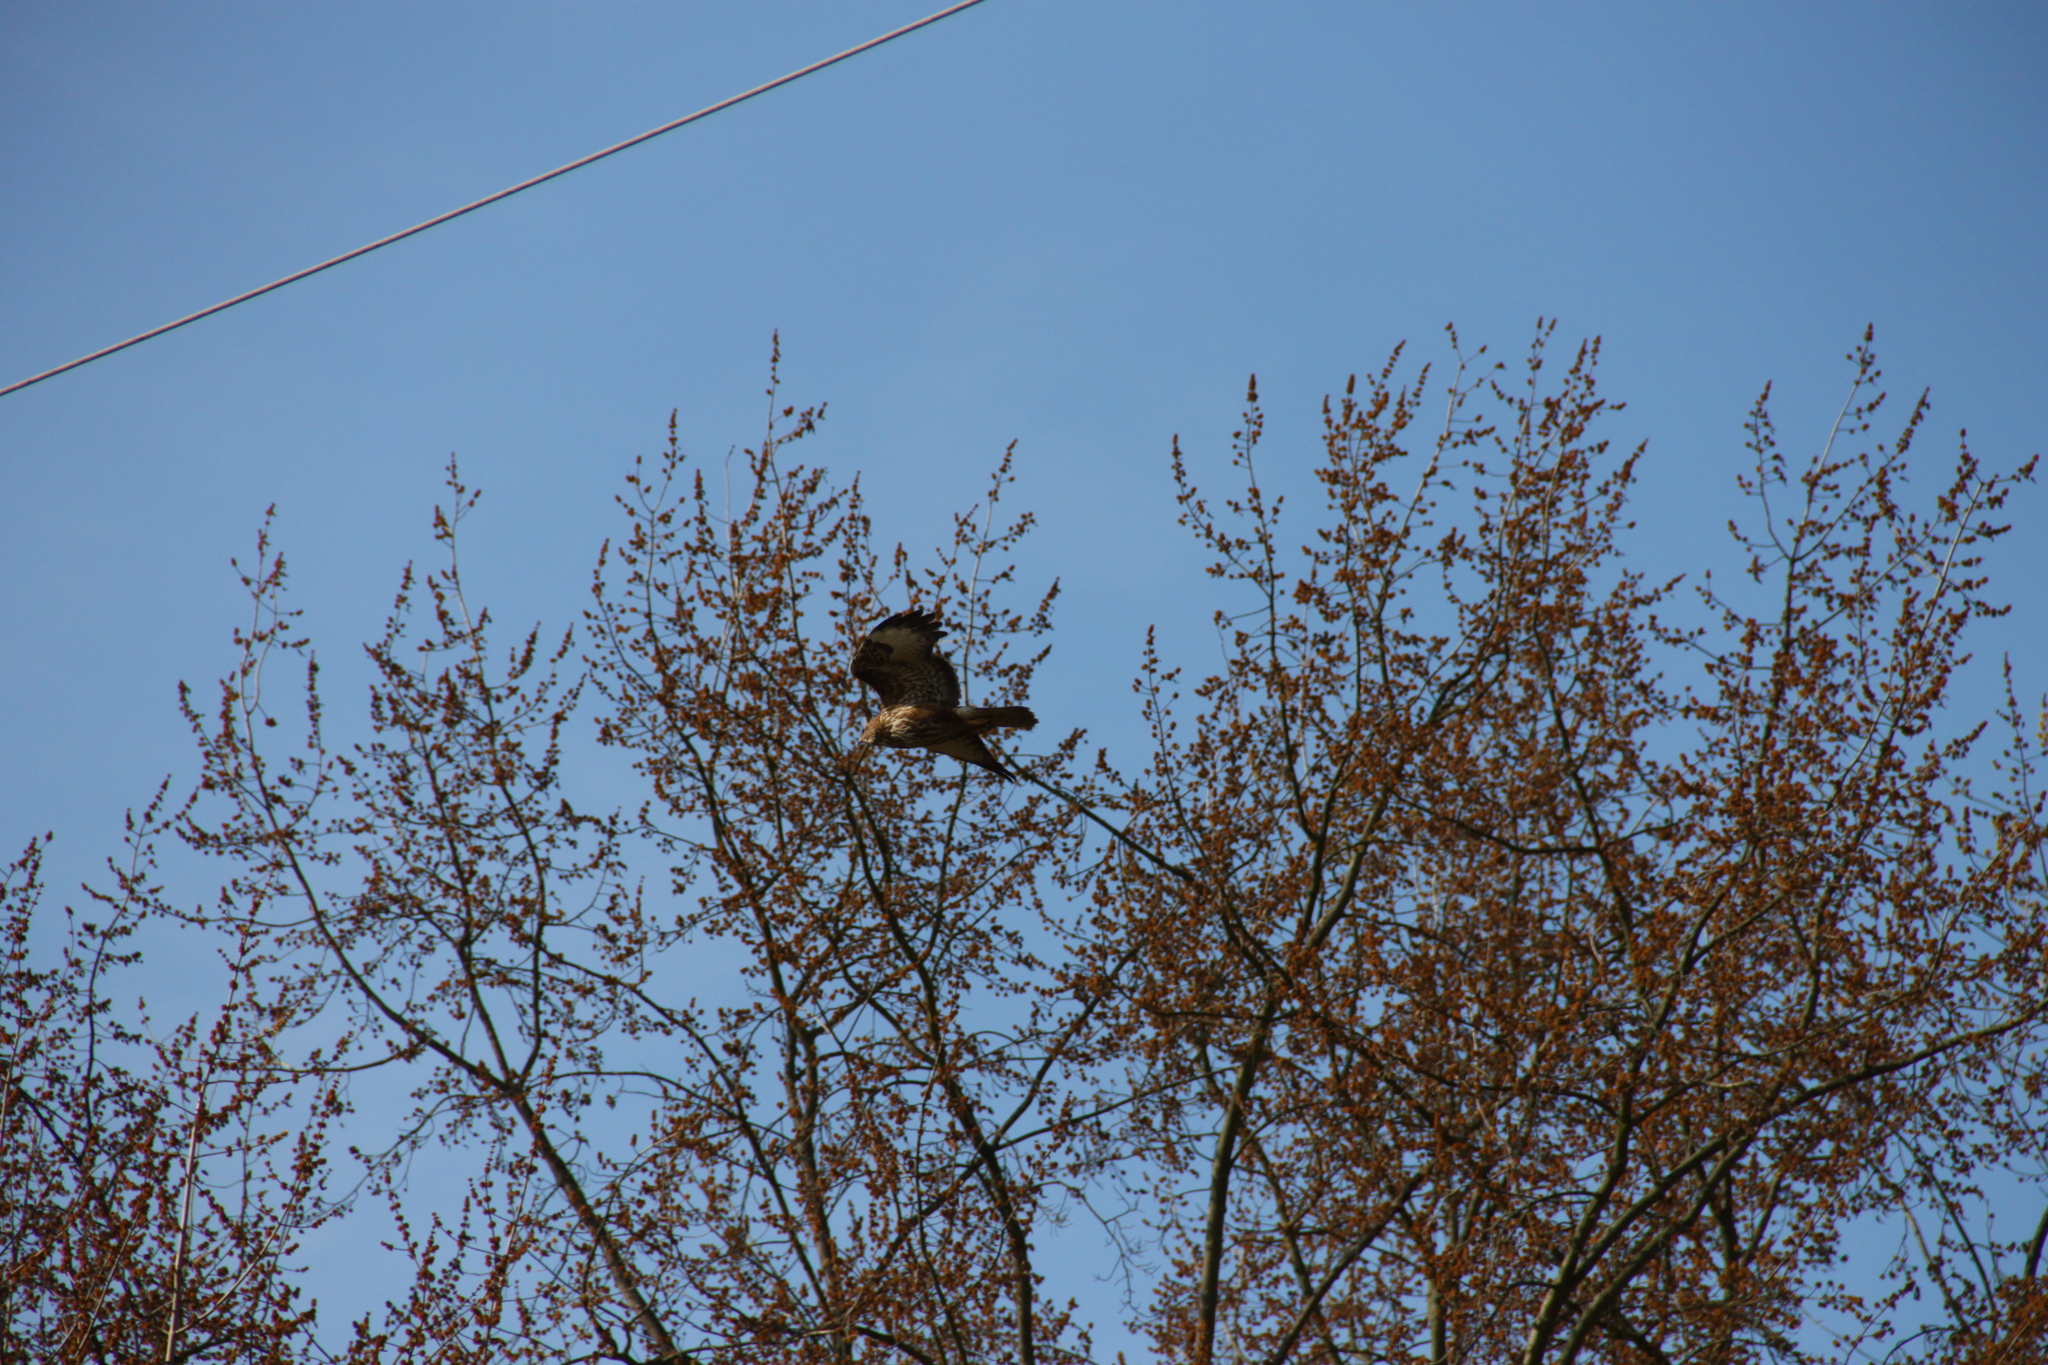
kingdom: Animalia
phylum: Chordata
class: Aves
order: Accipitriformes
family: Accipitridae
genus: Buteo
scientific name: Buteo buteo
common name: Common buzzard
